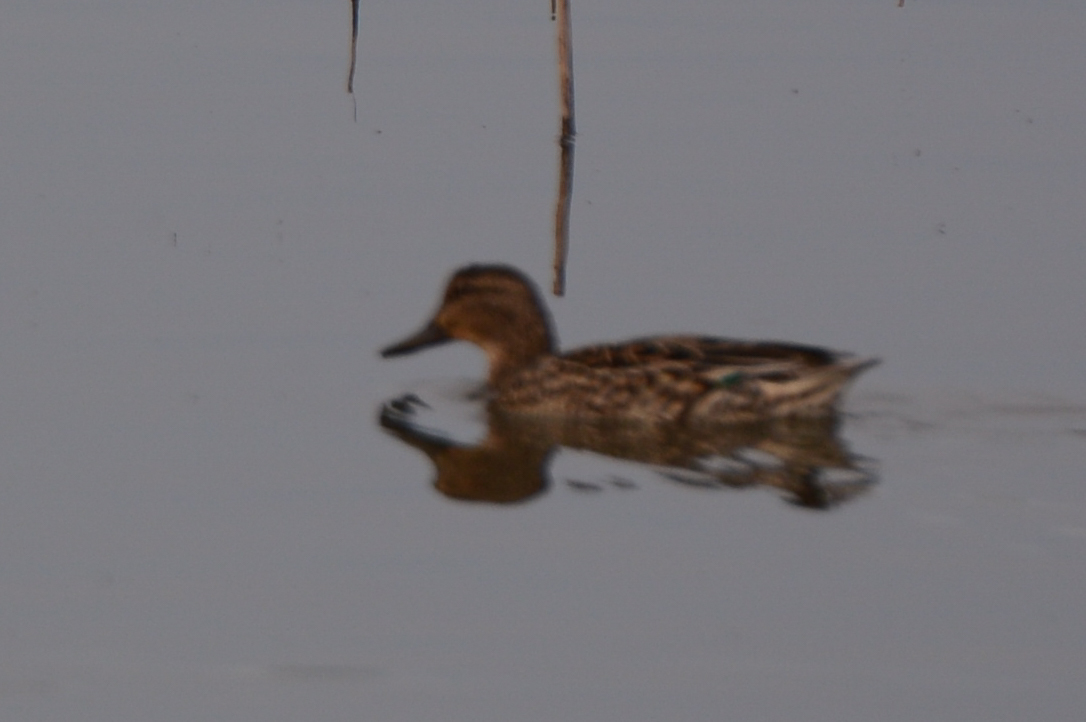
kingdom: Animalia
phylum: Chordata
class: Aves
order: Anseriformes
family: Anatidae
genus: Anas
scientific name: Anas crecca
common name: Eurasian teal
